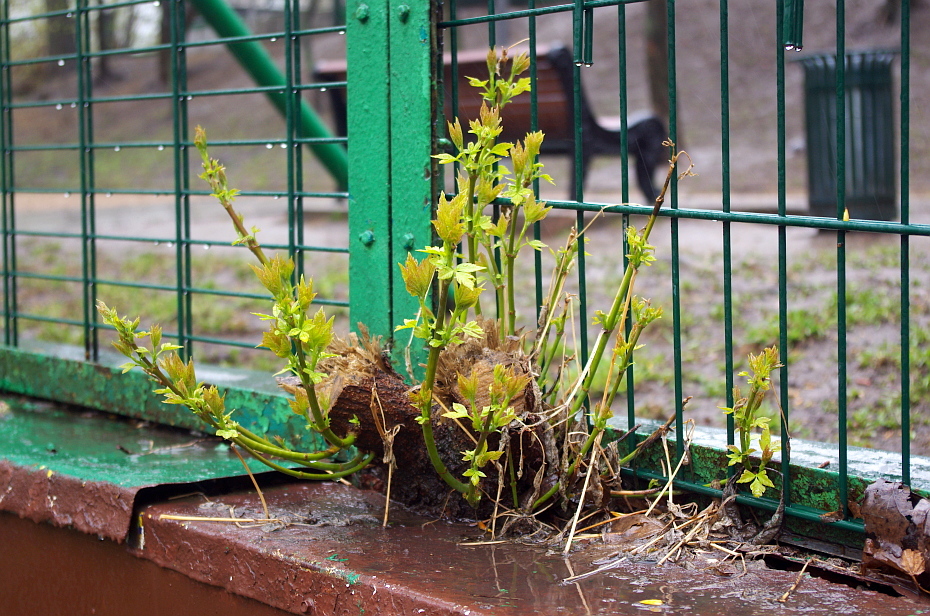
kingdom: Plantae
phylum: Tracheophyta
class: Magnoliopsida
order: Sapindales
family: Sapindaceae
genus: Acer
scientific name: Acer negundo
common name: Ashleaf maple
